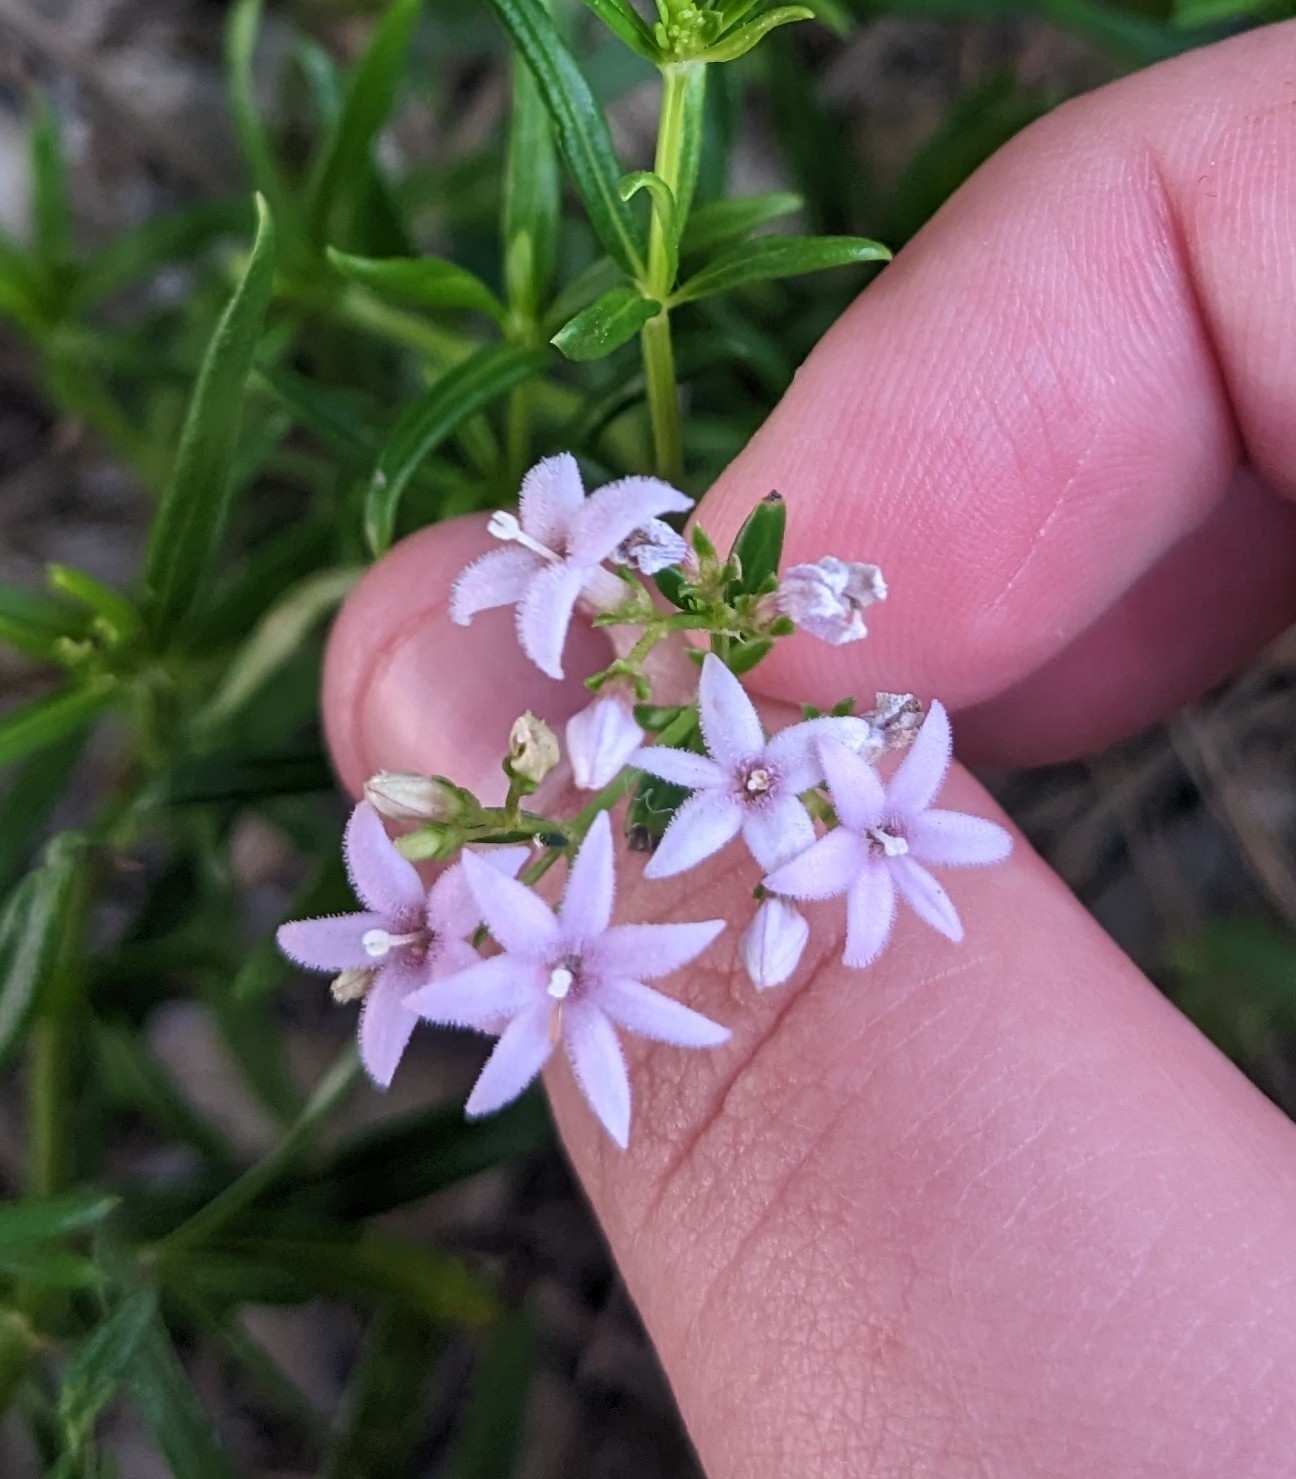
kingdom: Plantae
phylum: Tracheophyta
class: Magnoliopsida
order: Gentianales
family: Rubiaceae
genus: Stenaria
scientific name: Stenaria nigricans
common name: Diamondflowers
